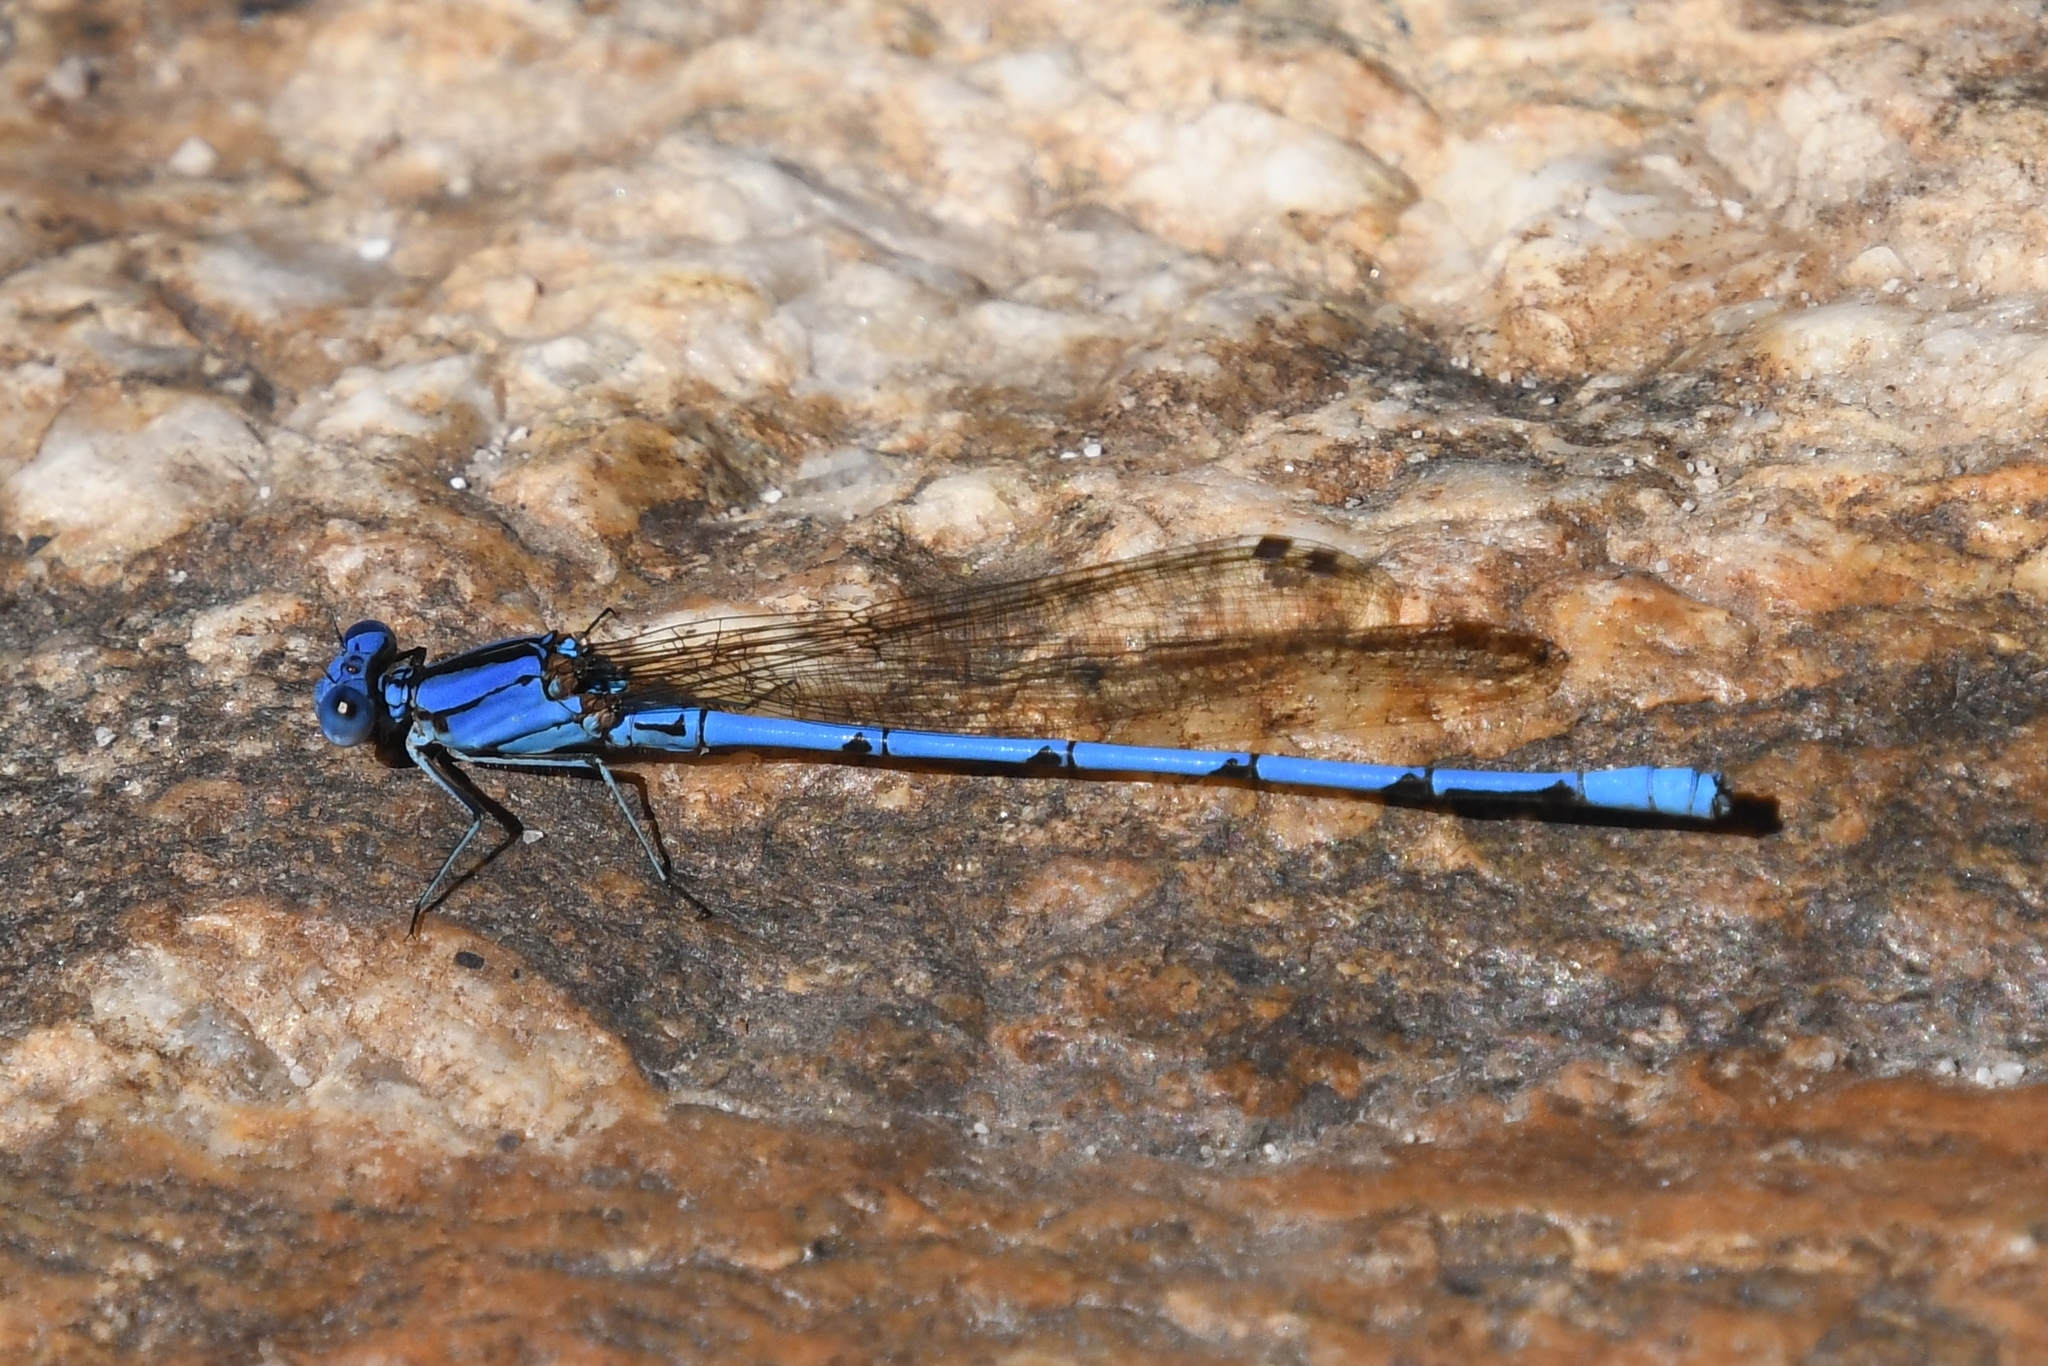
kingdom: Animalia
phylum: Arthropoda
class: Insecta
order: Odonata
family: Coenagrionidae
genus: Argia
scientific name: Argia anceps
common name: Cerulean dancer
